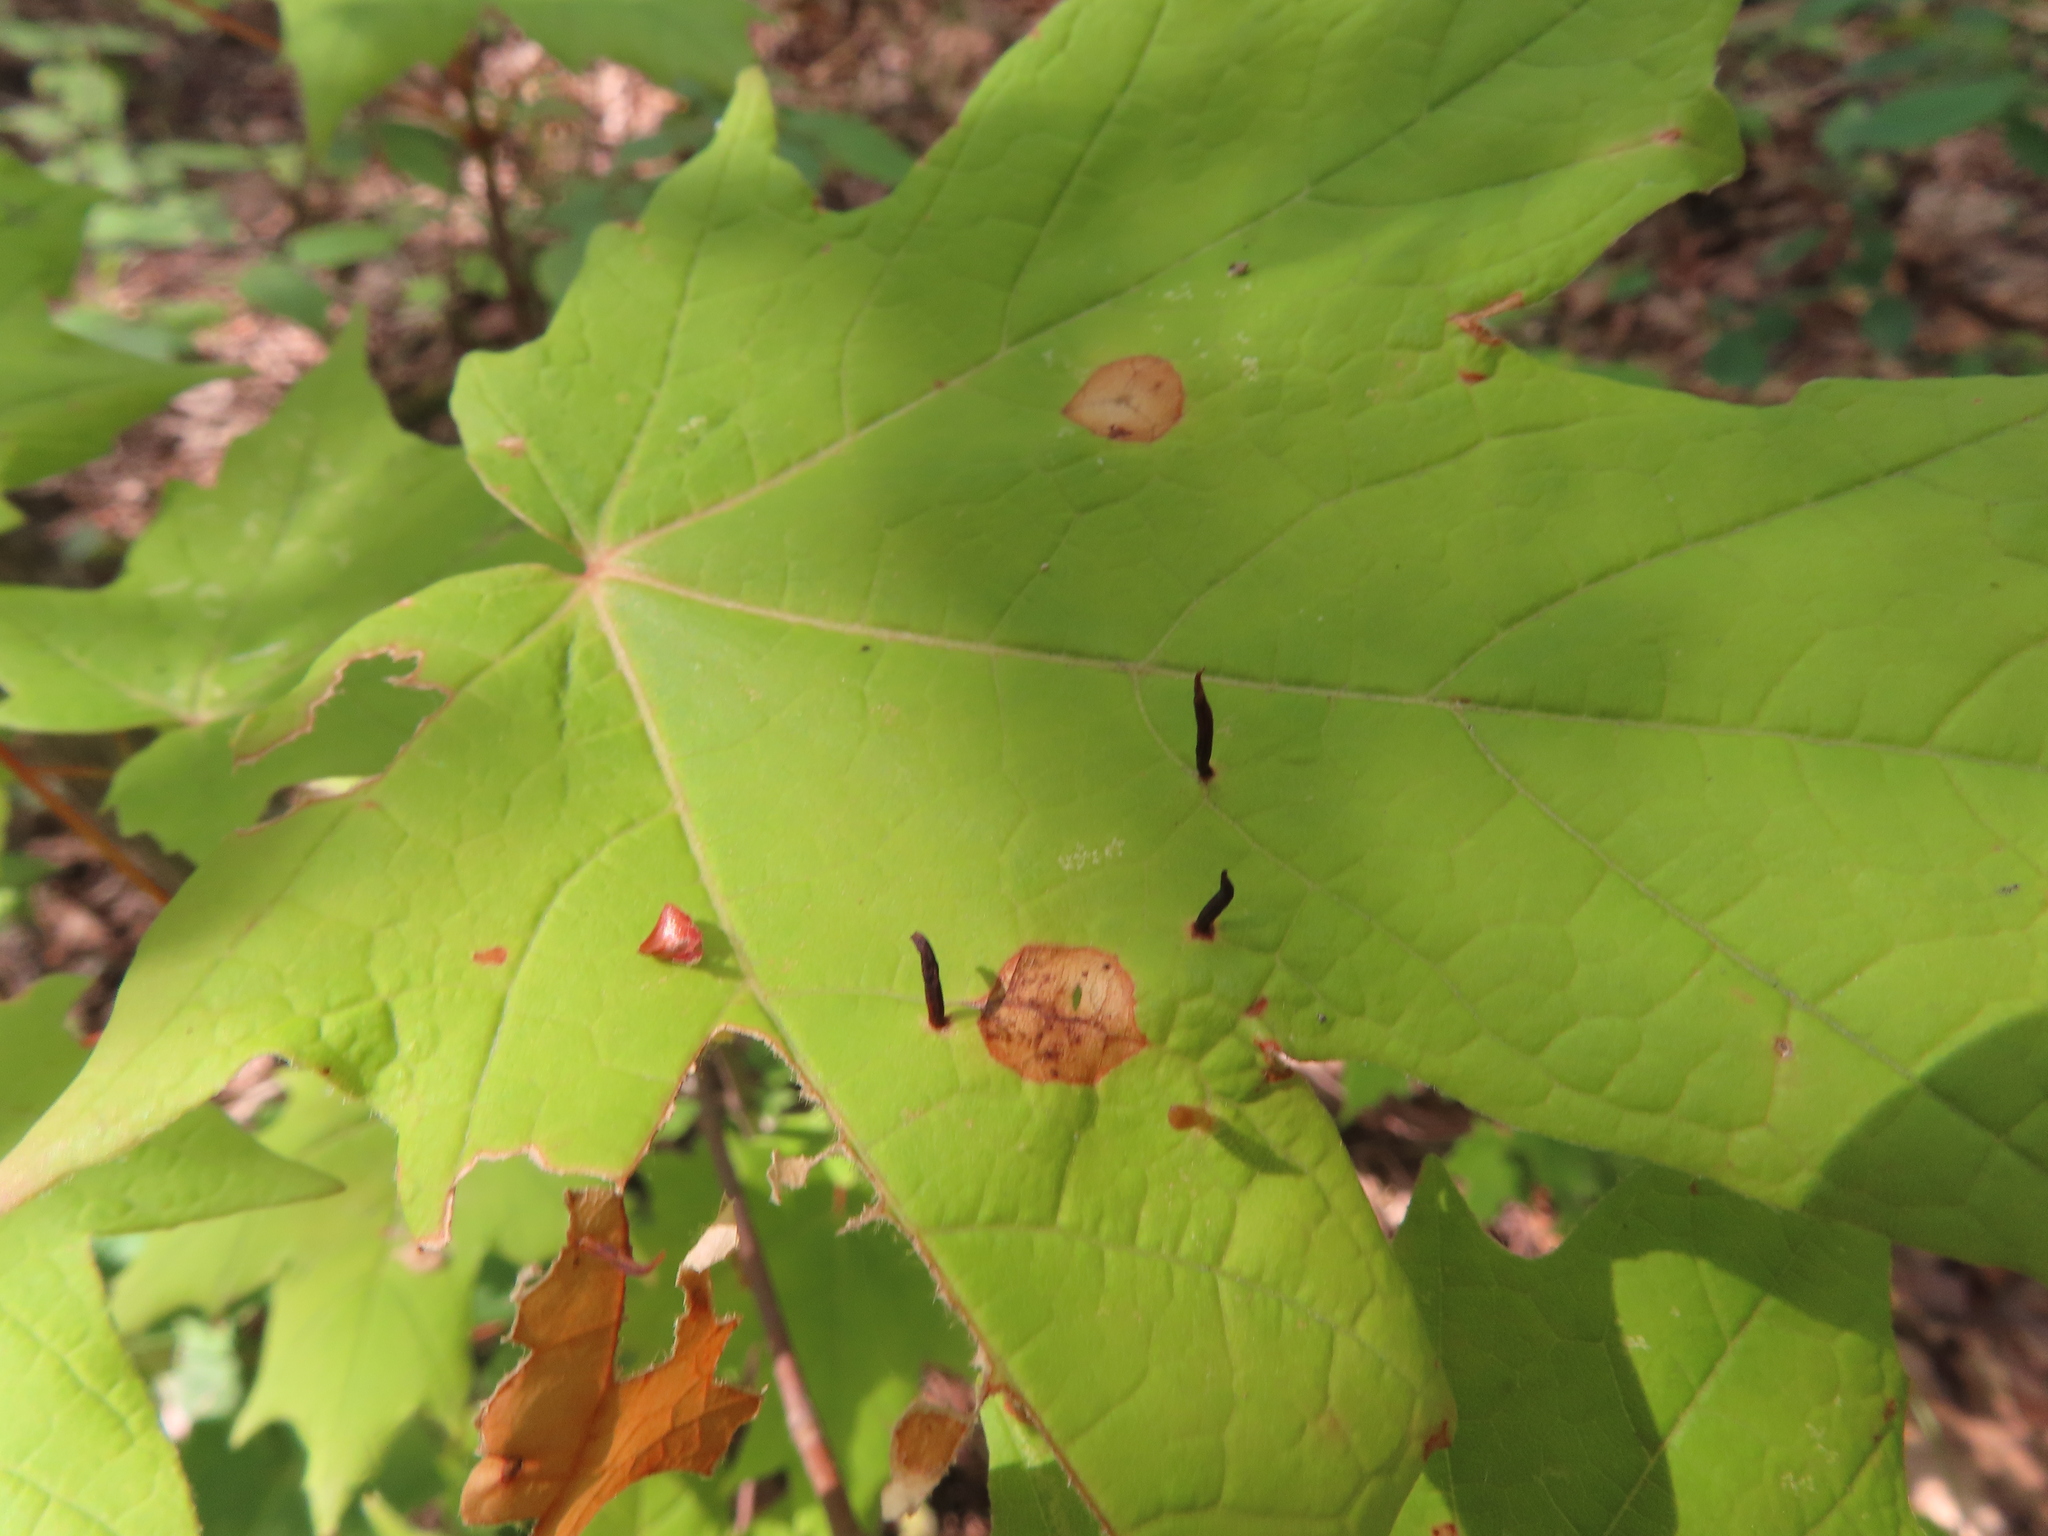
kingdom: Animalia
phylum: Arthropoda
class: Arachnida
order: Trombidiformes
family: Eriophyidae
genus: Vasates
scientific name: Vasates aceriscrumena
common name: Maple spindle gall mite
